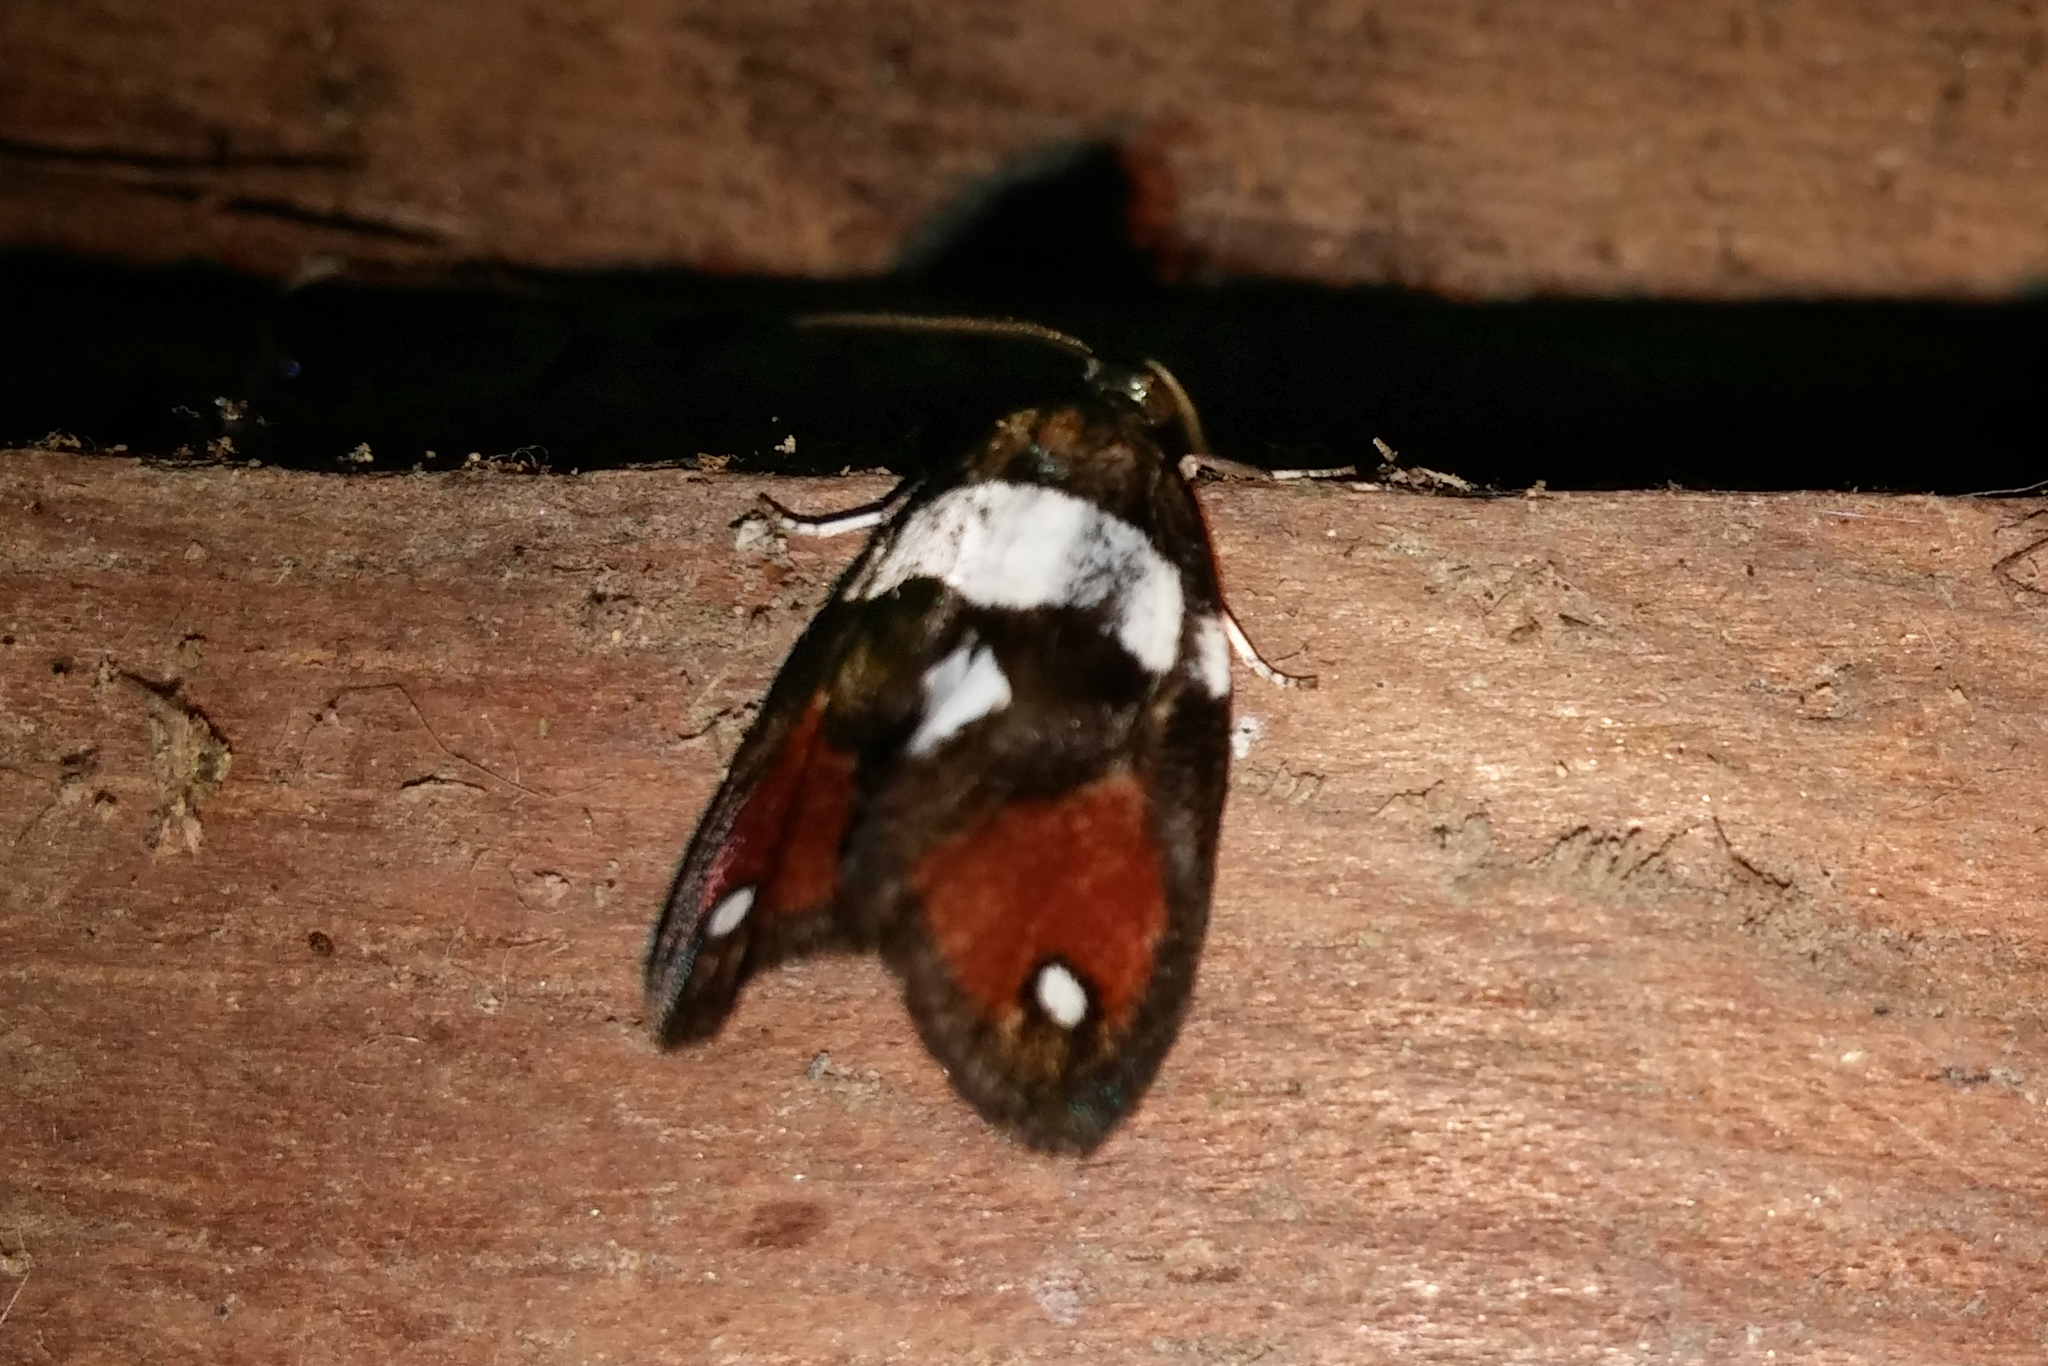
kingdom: Animalia
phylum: Arthropoda
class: Insecta
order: Lepidoptera
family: Erebidae
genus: Damias
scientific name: Damias
